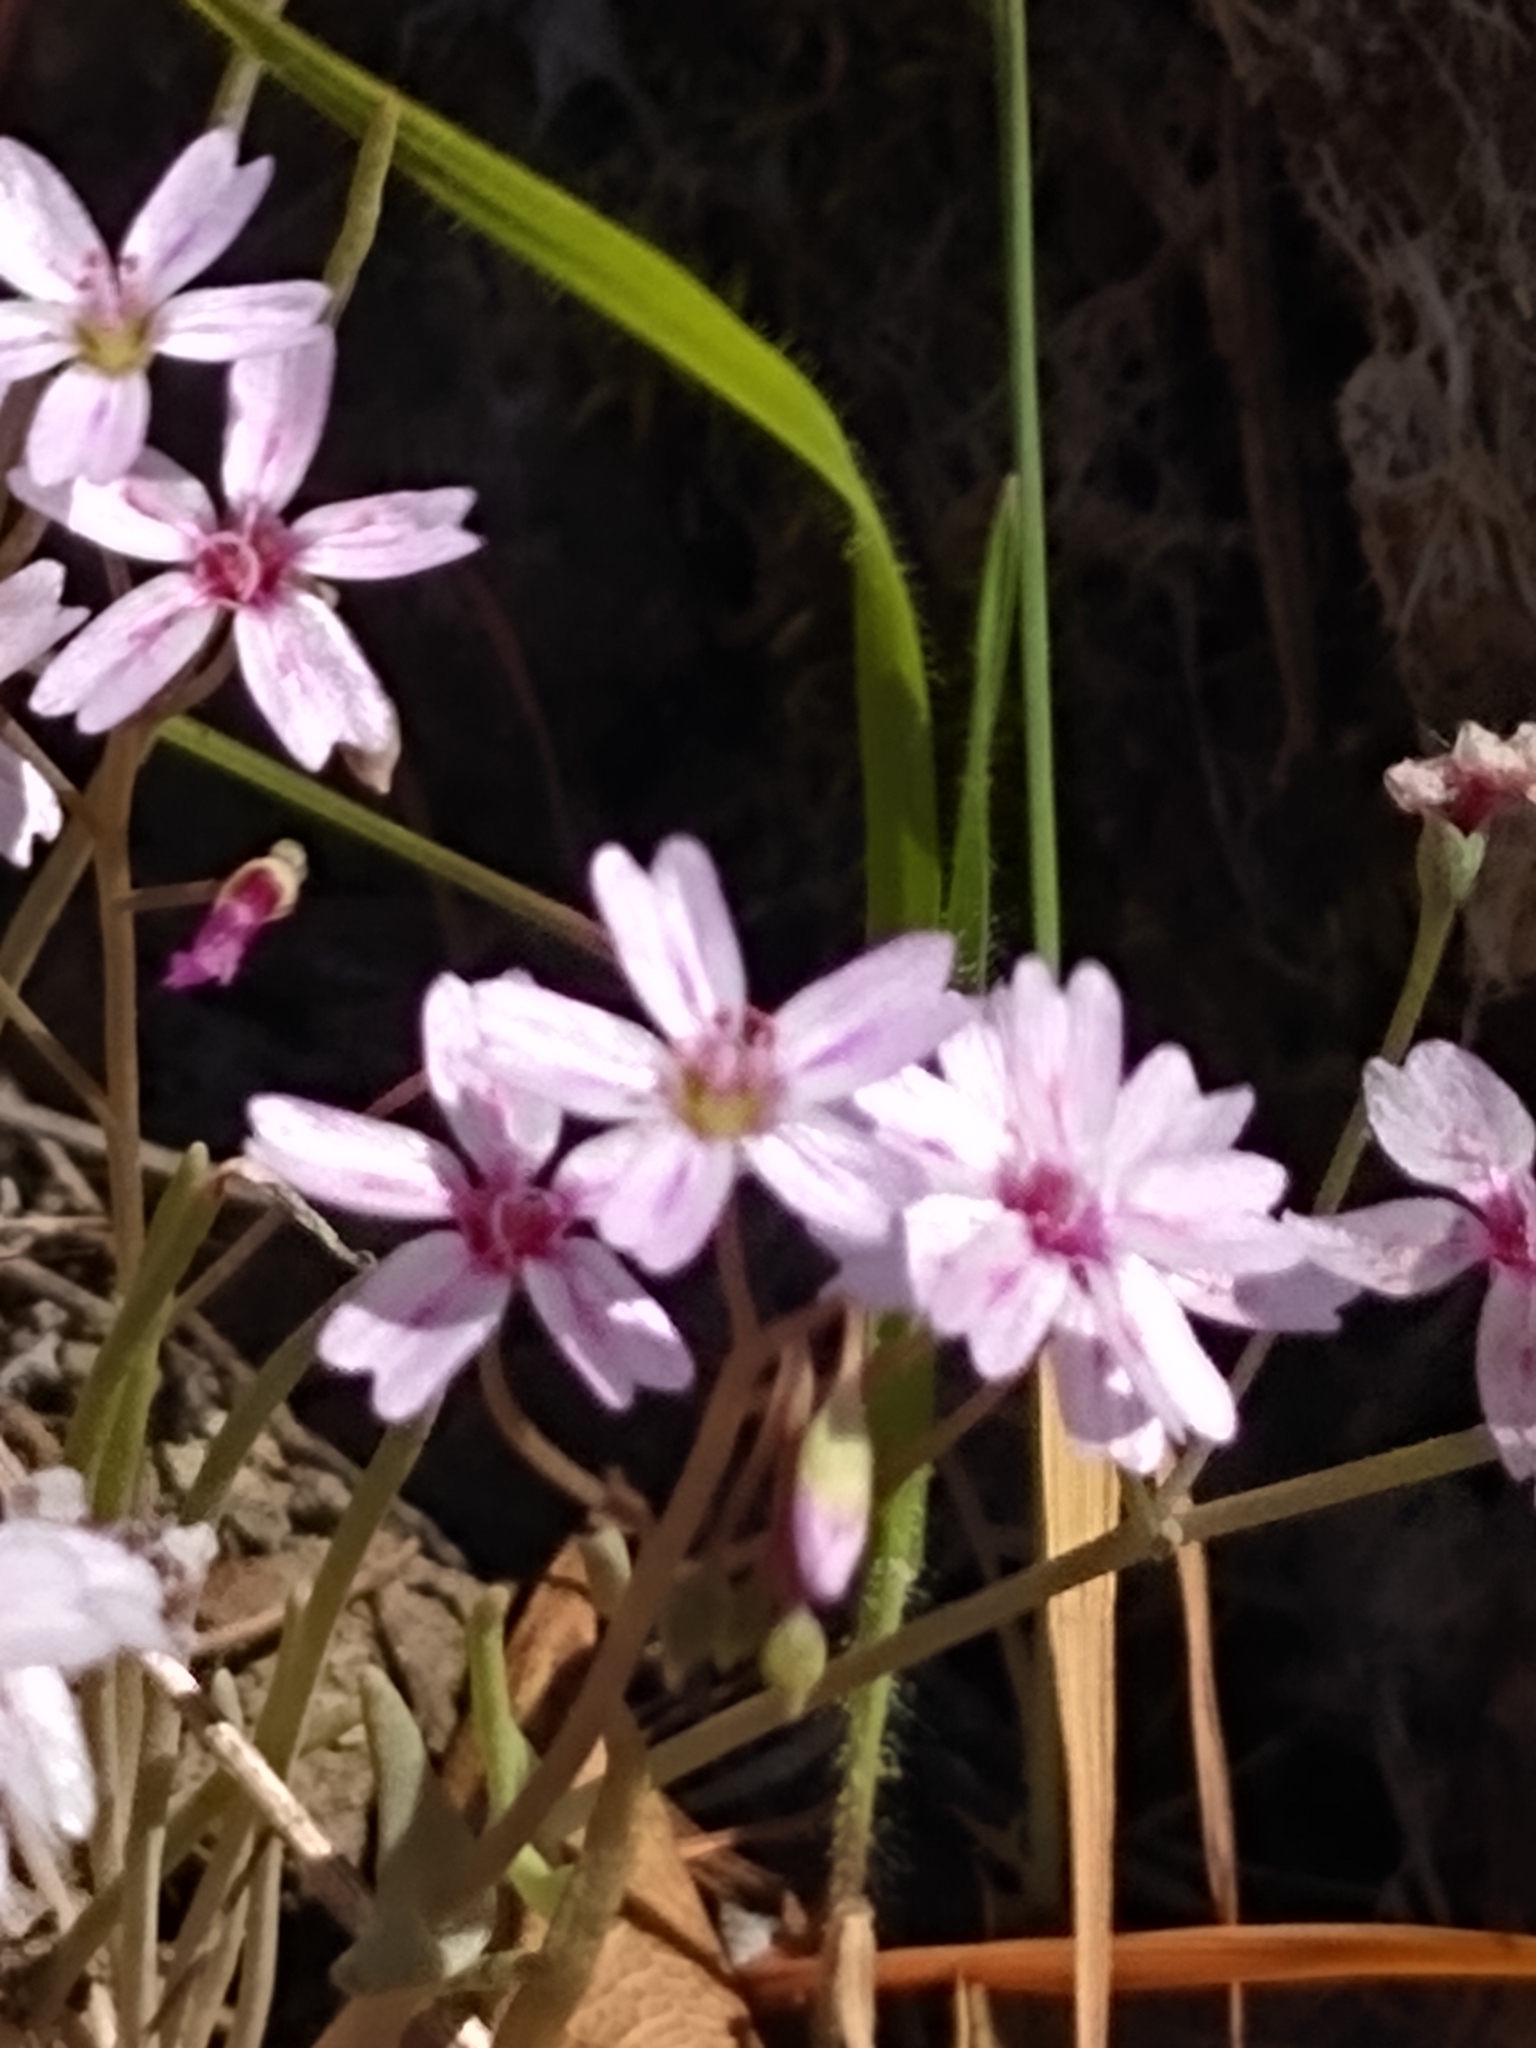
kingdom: Plantae
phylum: Tracheophyta
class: Magnoliopsida
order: Caryophyllales
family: Montiaceae
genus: Claytonia
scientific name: Claytonia gypsophiloides
